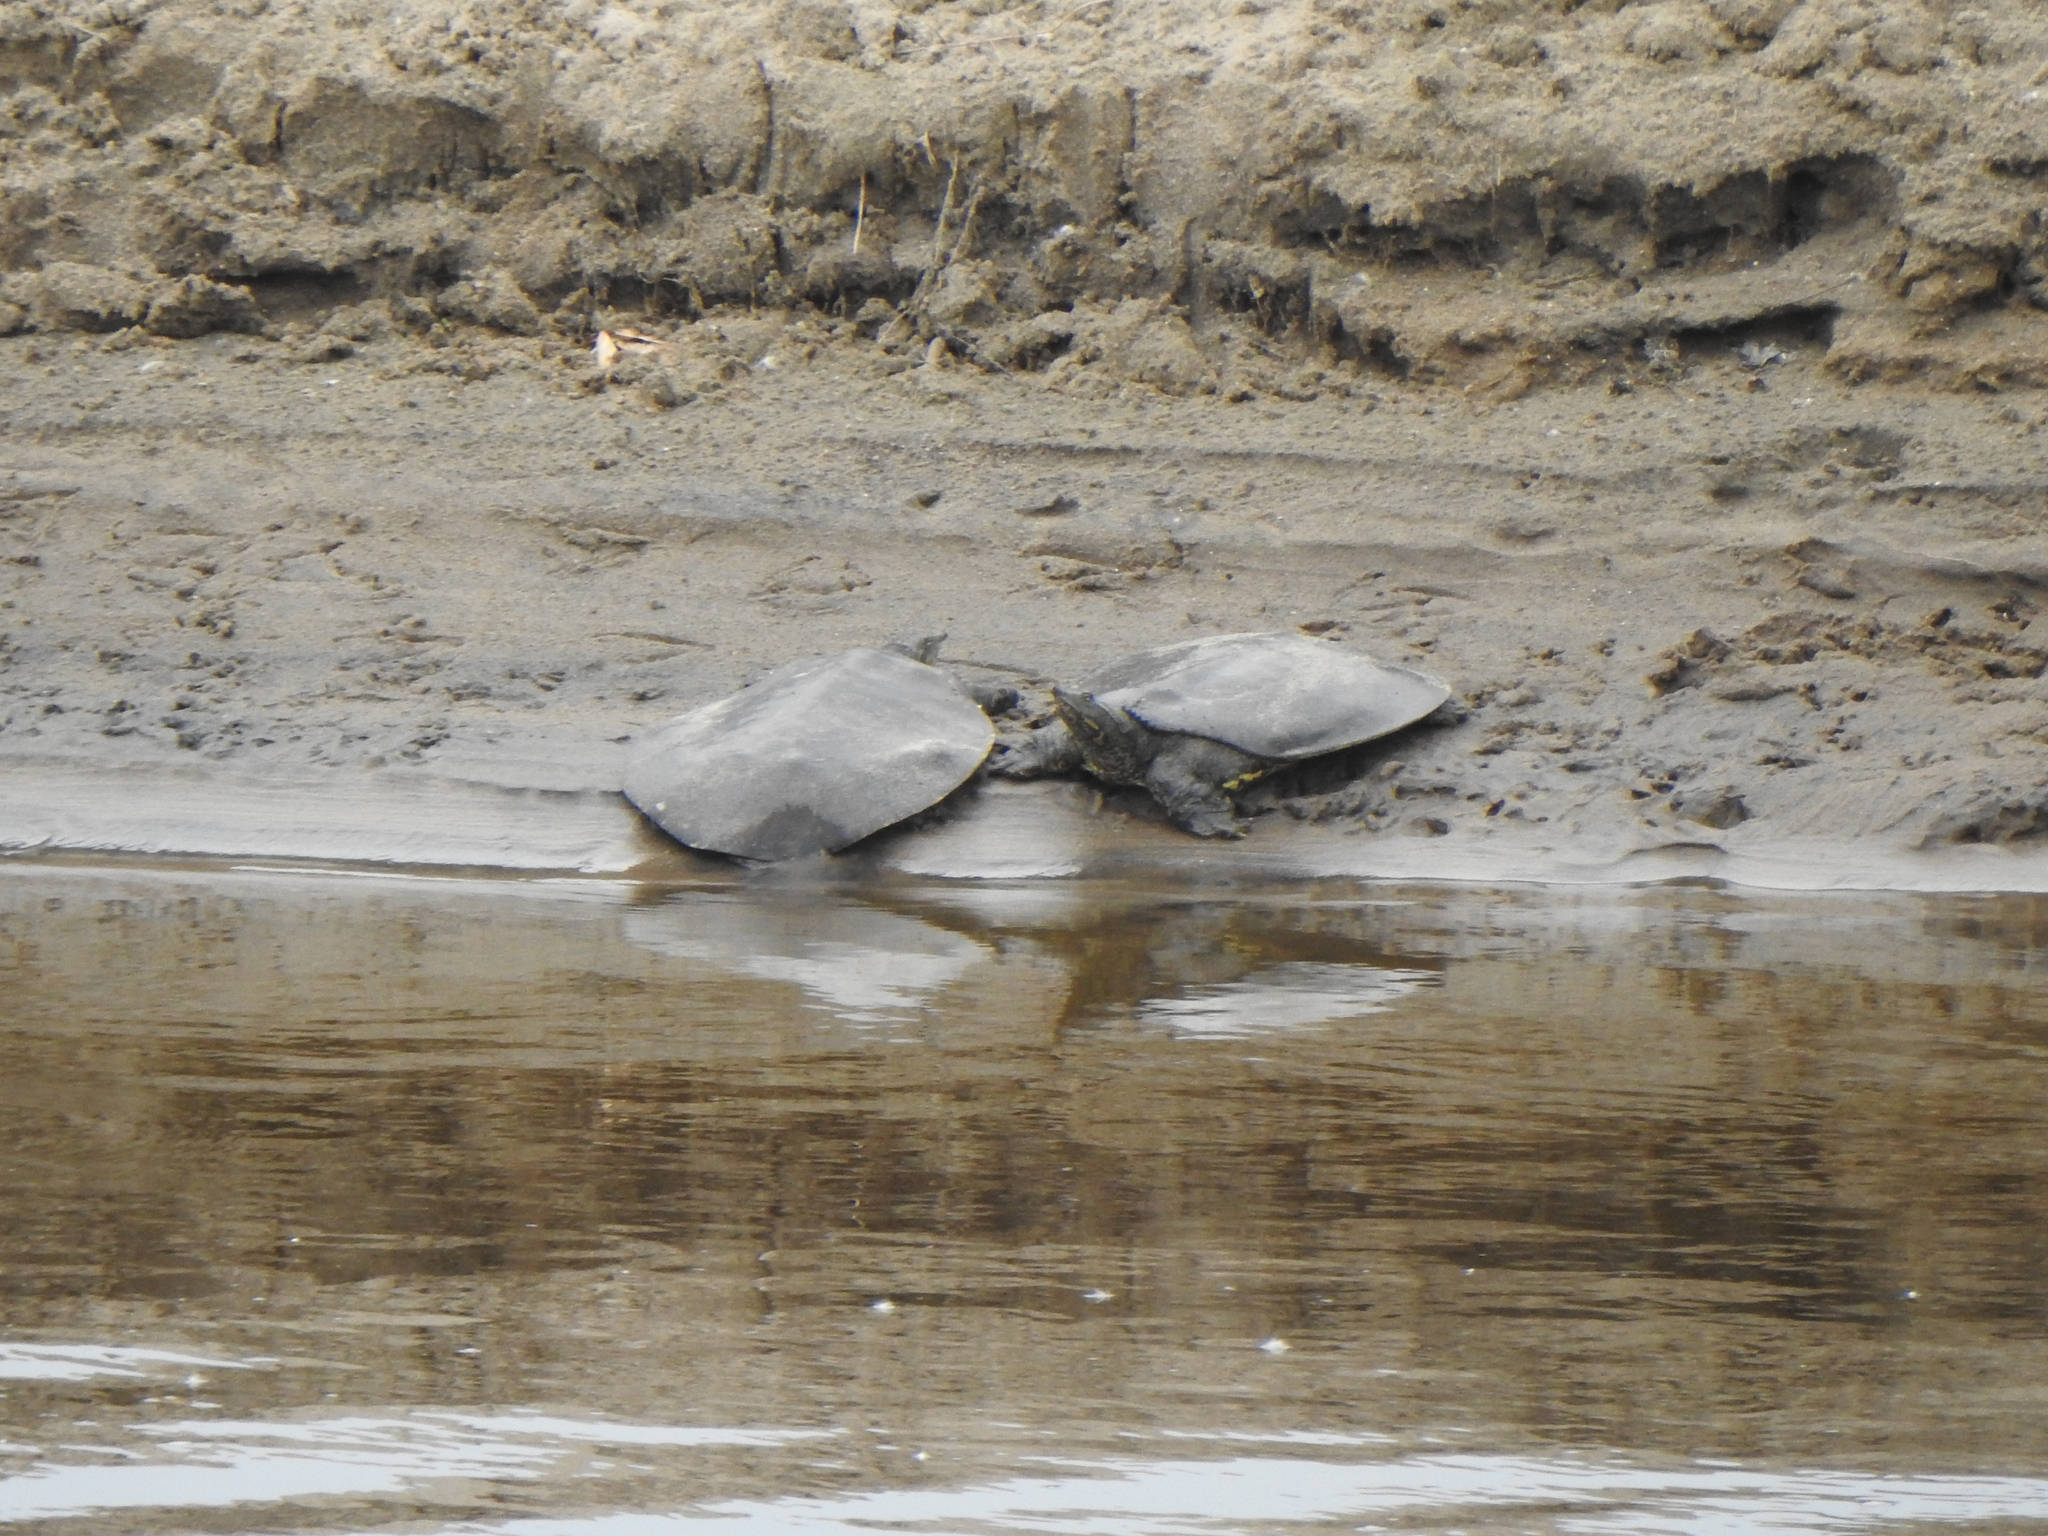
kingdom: Animalia
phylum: Chordata
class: Testudines
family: Trionychidae
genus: Apalone
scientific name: Apalone spinifera
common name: Spiny softshell turtle
